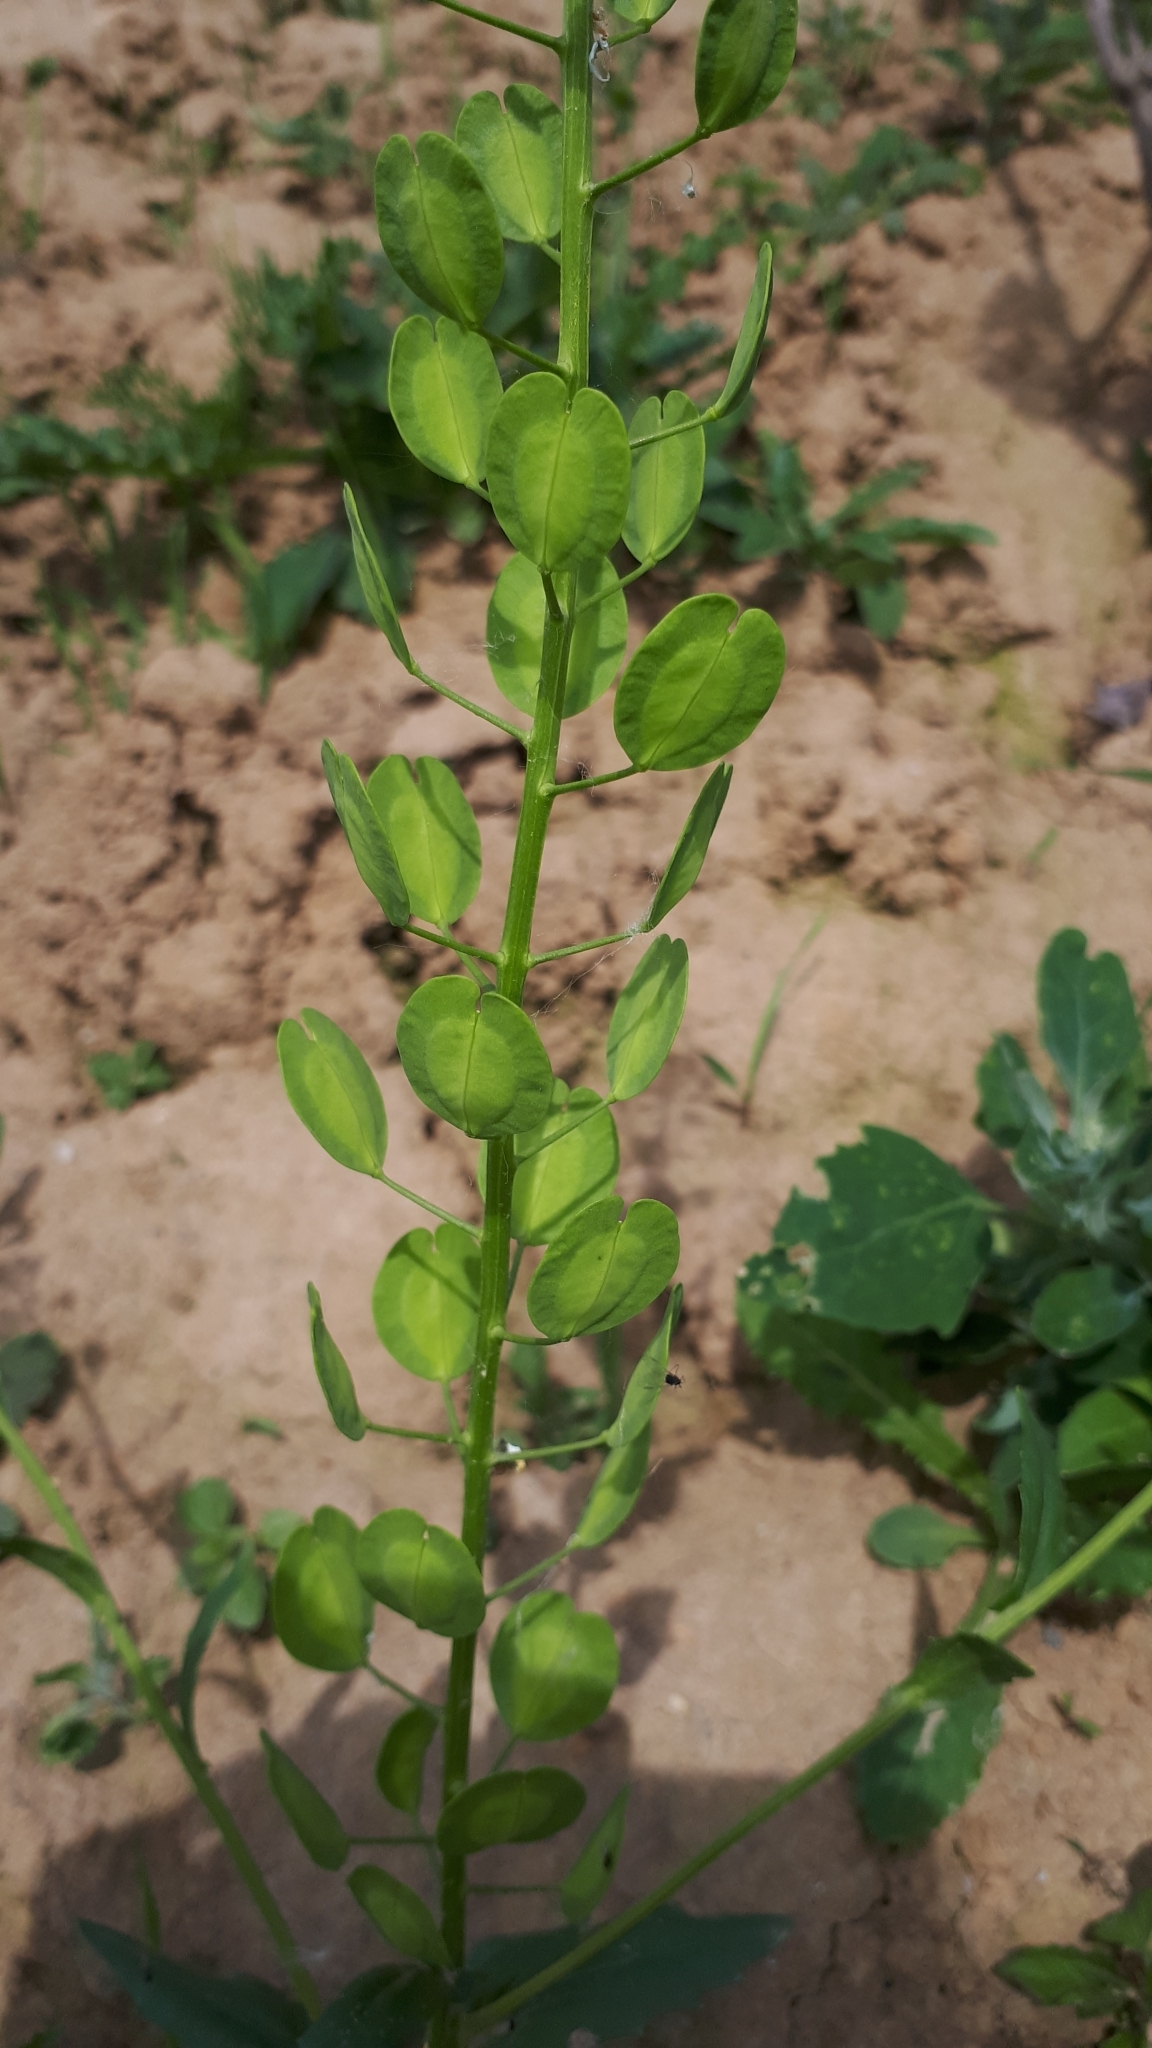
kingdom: Plantae
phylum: Tracheophyta
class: Magnoliopsida
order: Brassicales
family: Brassicaceae
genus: Thlaspi
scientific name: Thlaspi arvense
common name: Field pennycress
